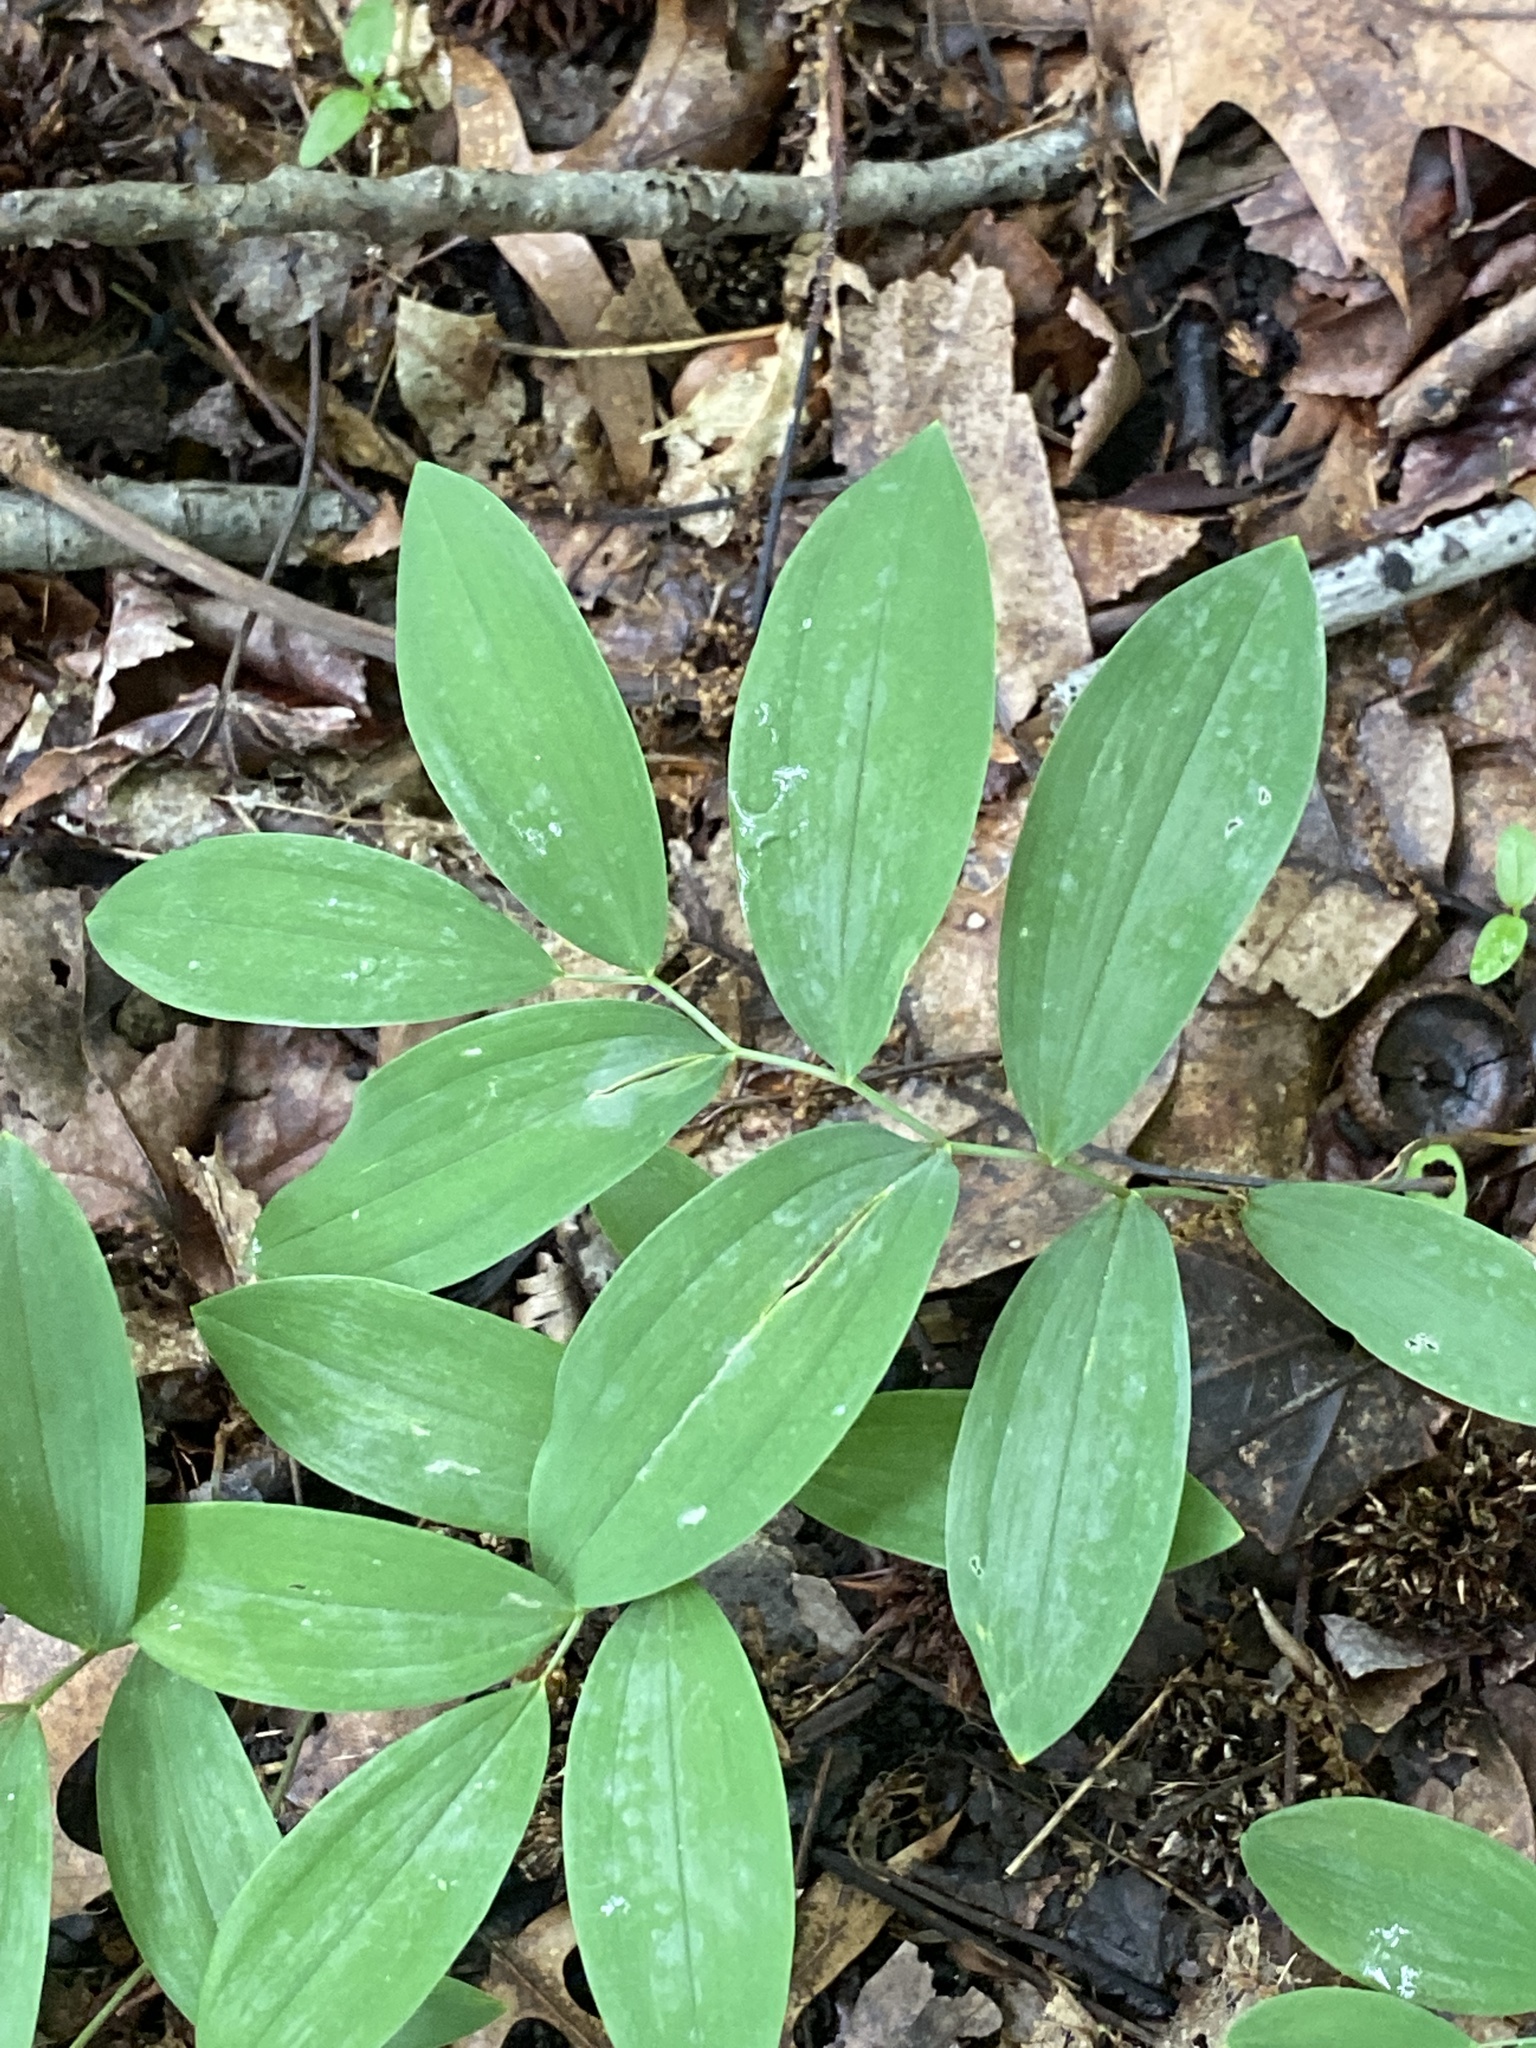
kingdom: Plantae
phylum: Tracheophyta
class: Liliopsida
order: Liliales
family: Colchicaceae
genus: Uvularia
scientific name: Uvularia sessilifolia
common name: Straw-lily
